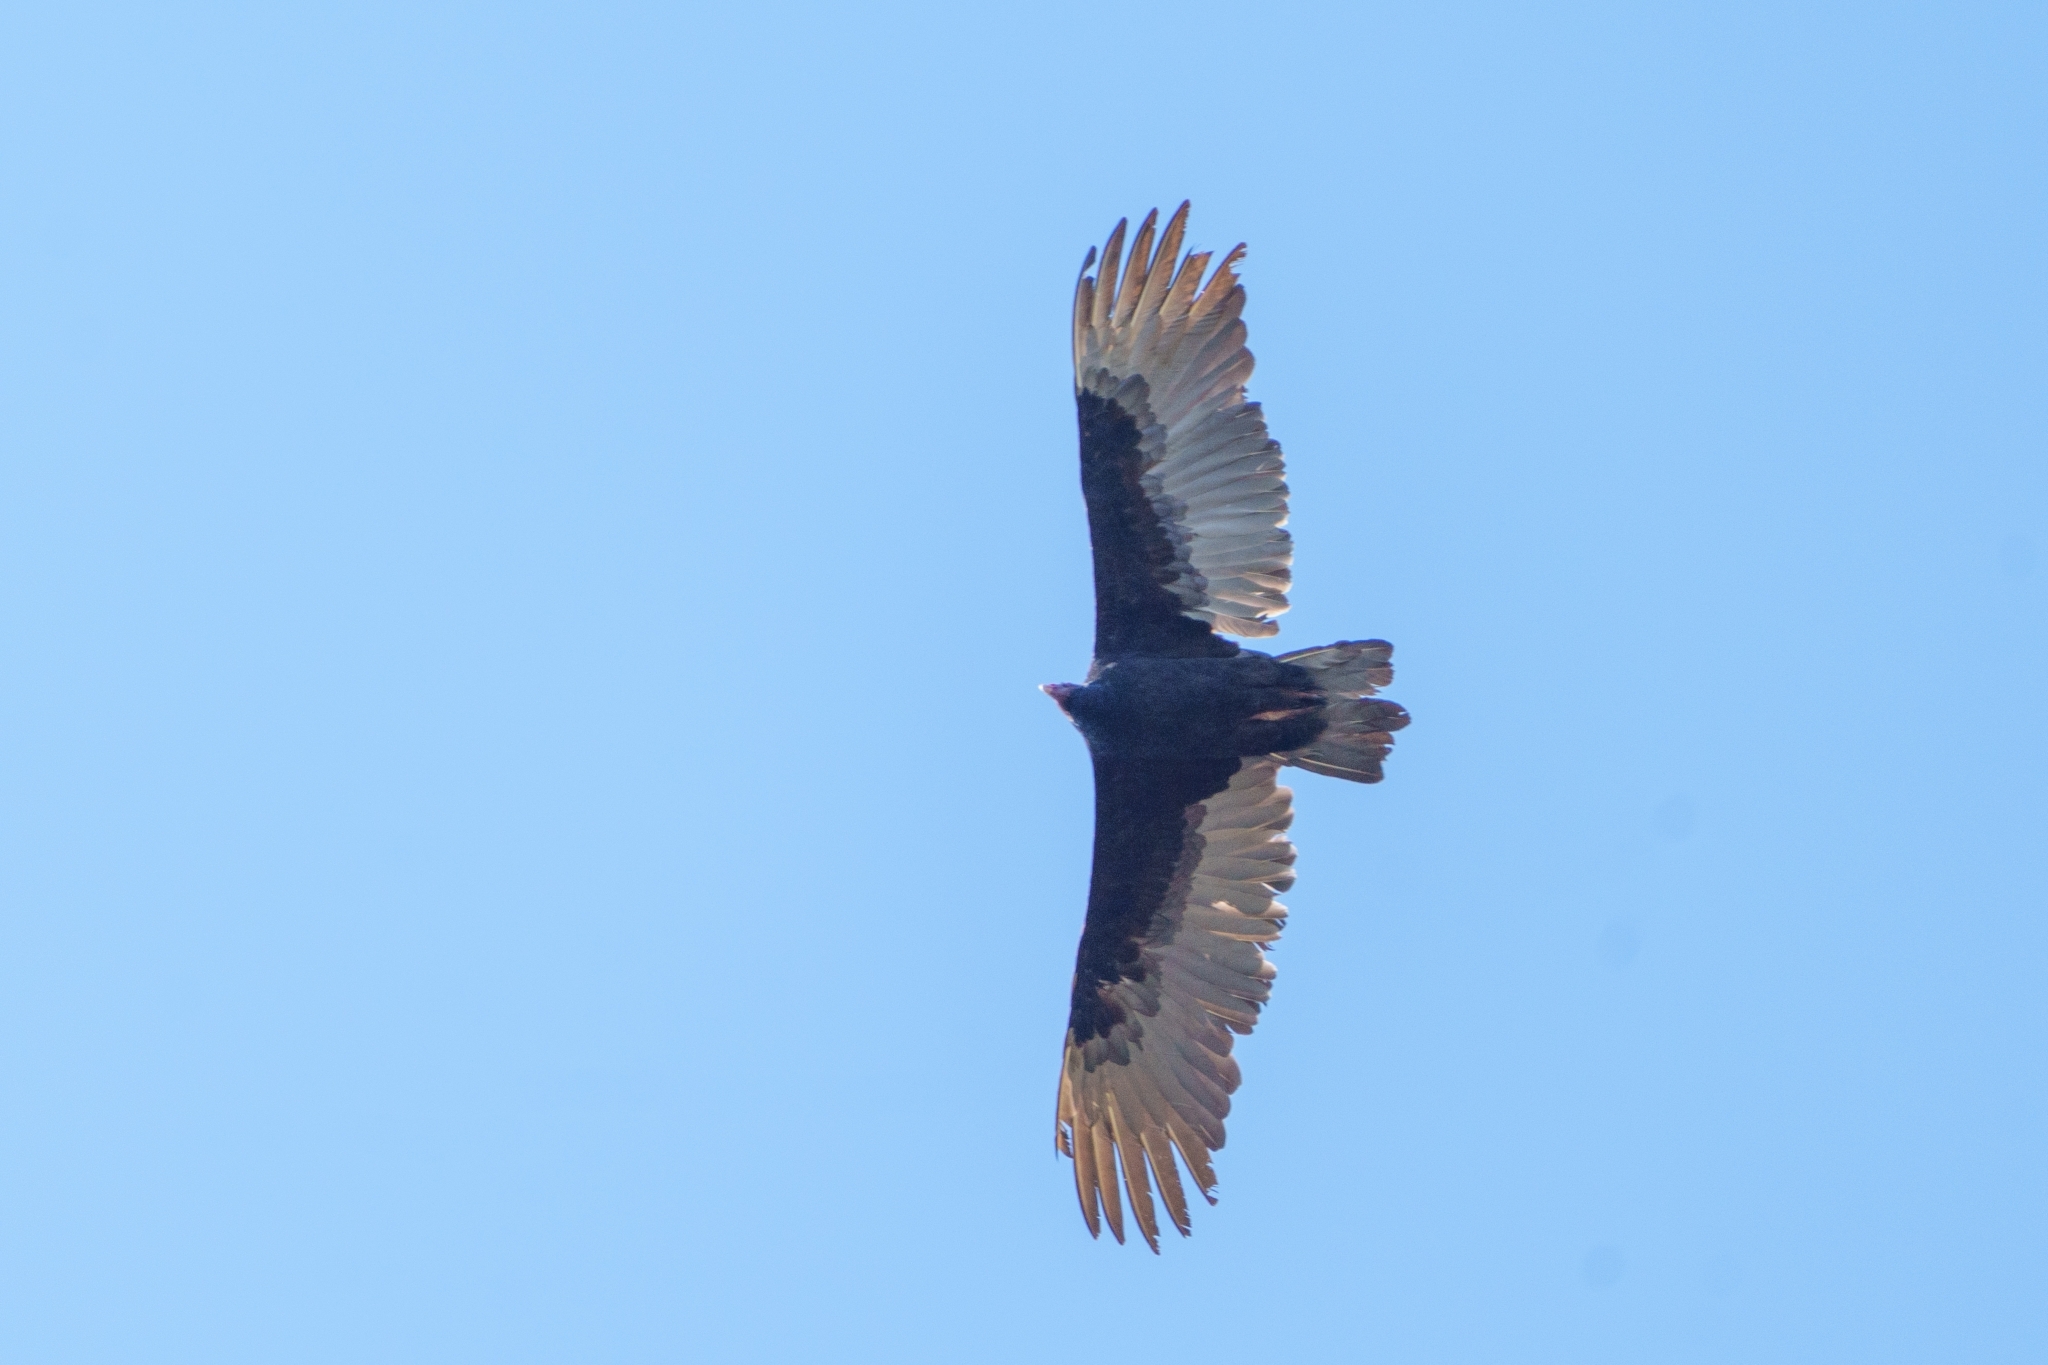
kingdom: Animalia
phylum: Chordata
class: Aves
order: Accipitriformes
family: Cathartidae
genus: Cathartes
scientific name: Cathartes aura
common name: Turkey vulture
